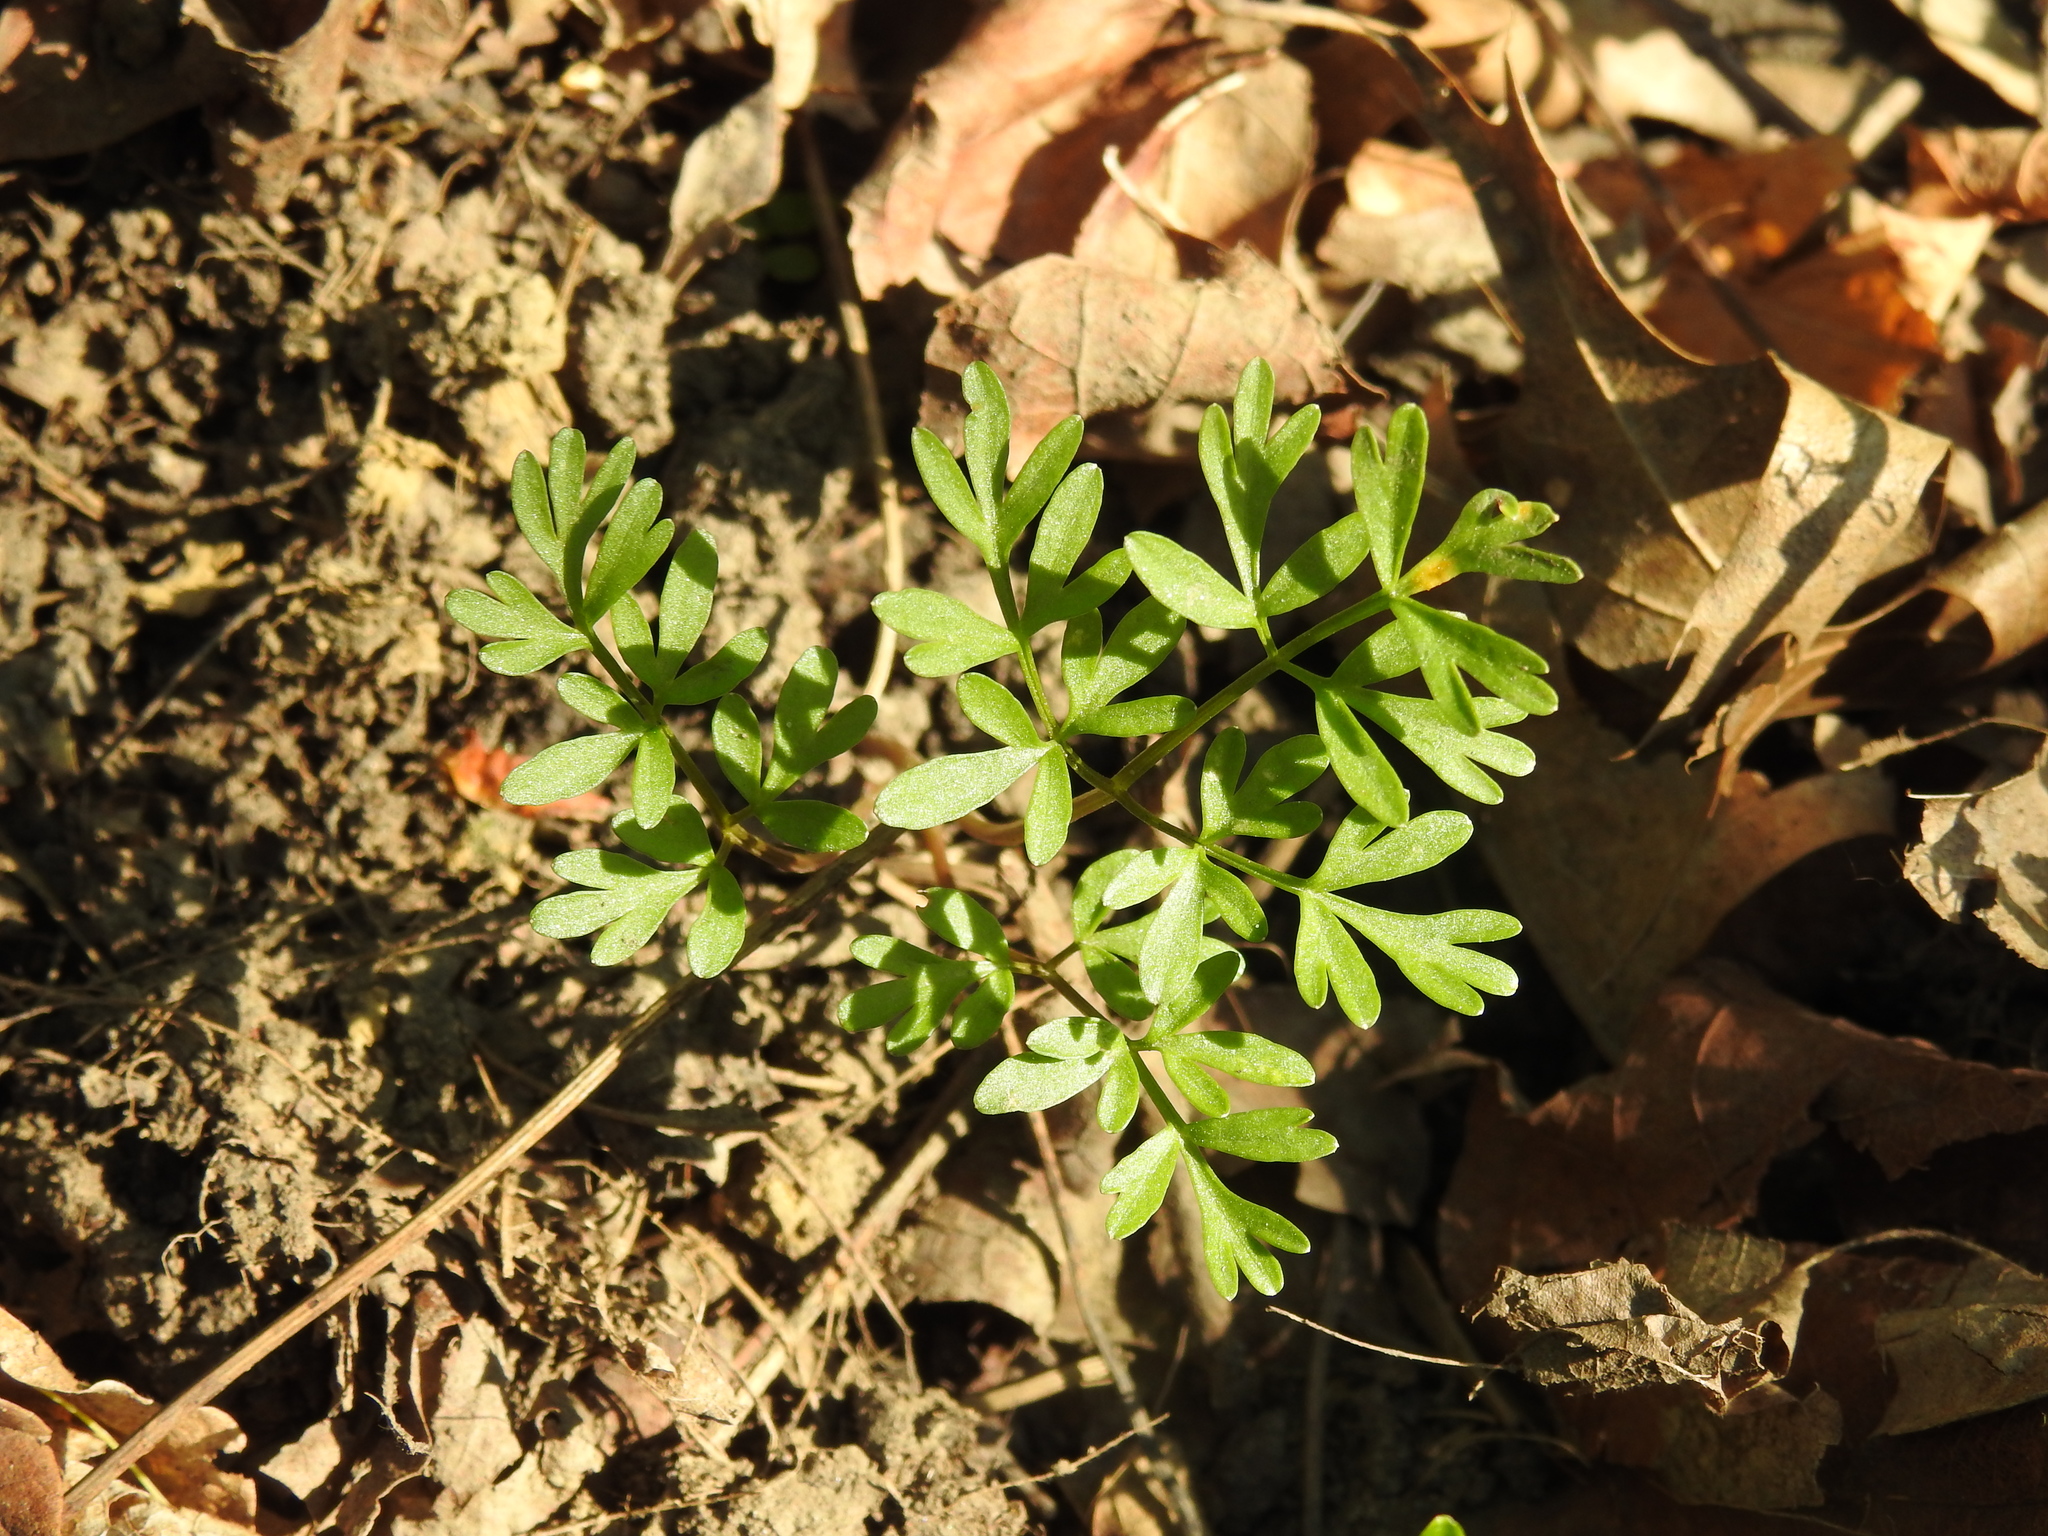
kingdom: Plantae
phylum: Tracheophyta
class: Magnoliopsida
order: Apiales
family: Apiaceae
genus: Erigenia
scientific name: Erigenia bulbosa
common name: Pepper-and-salt
